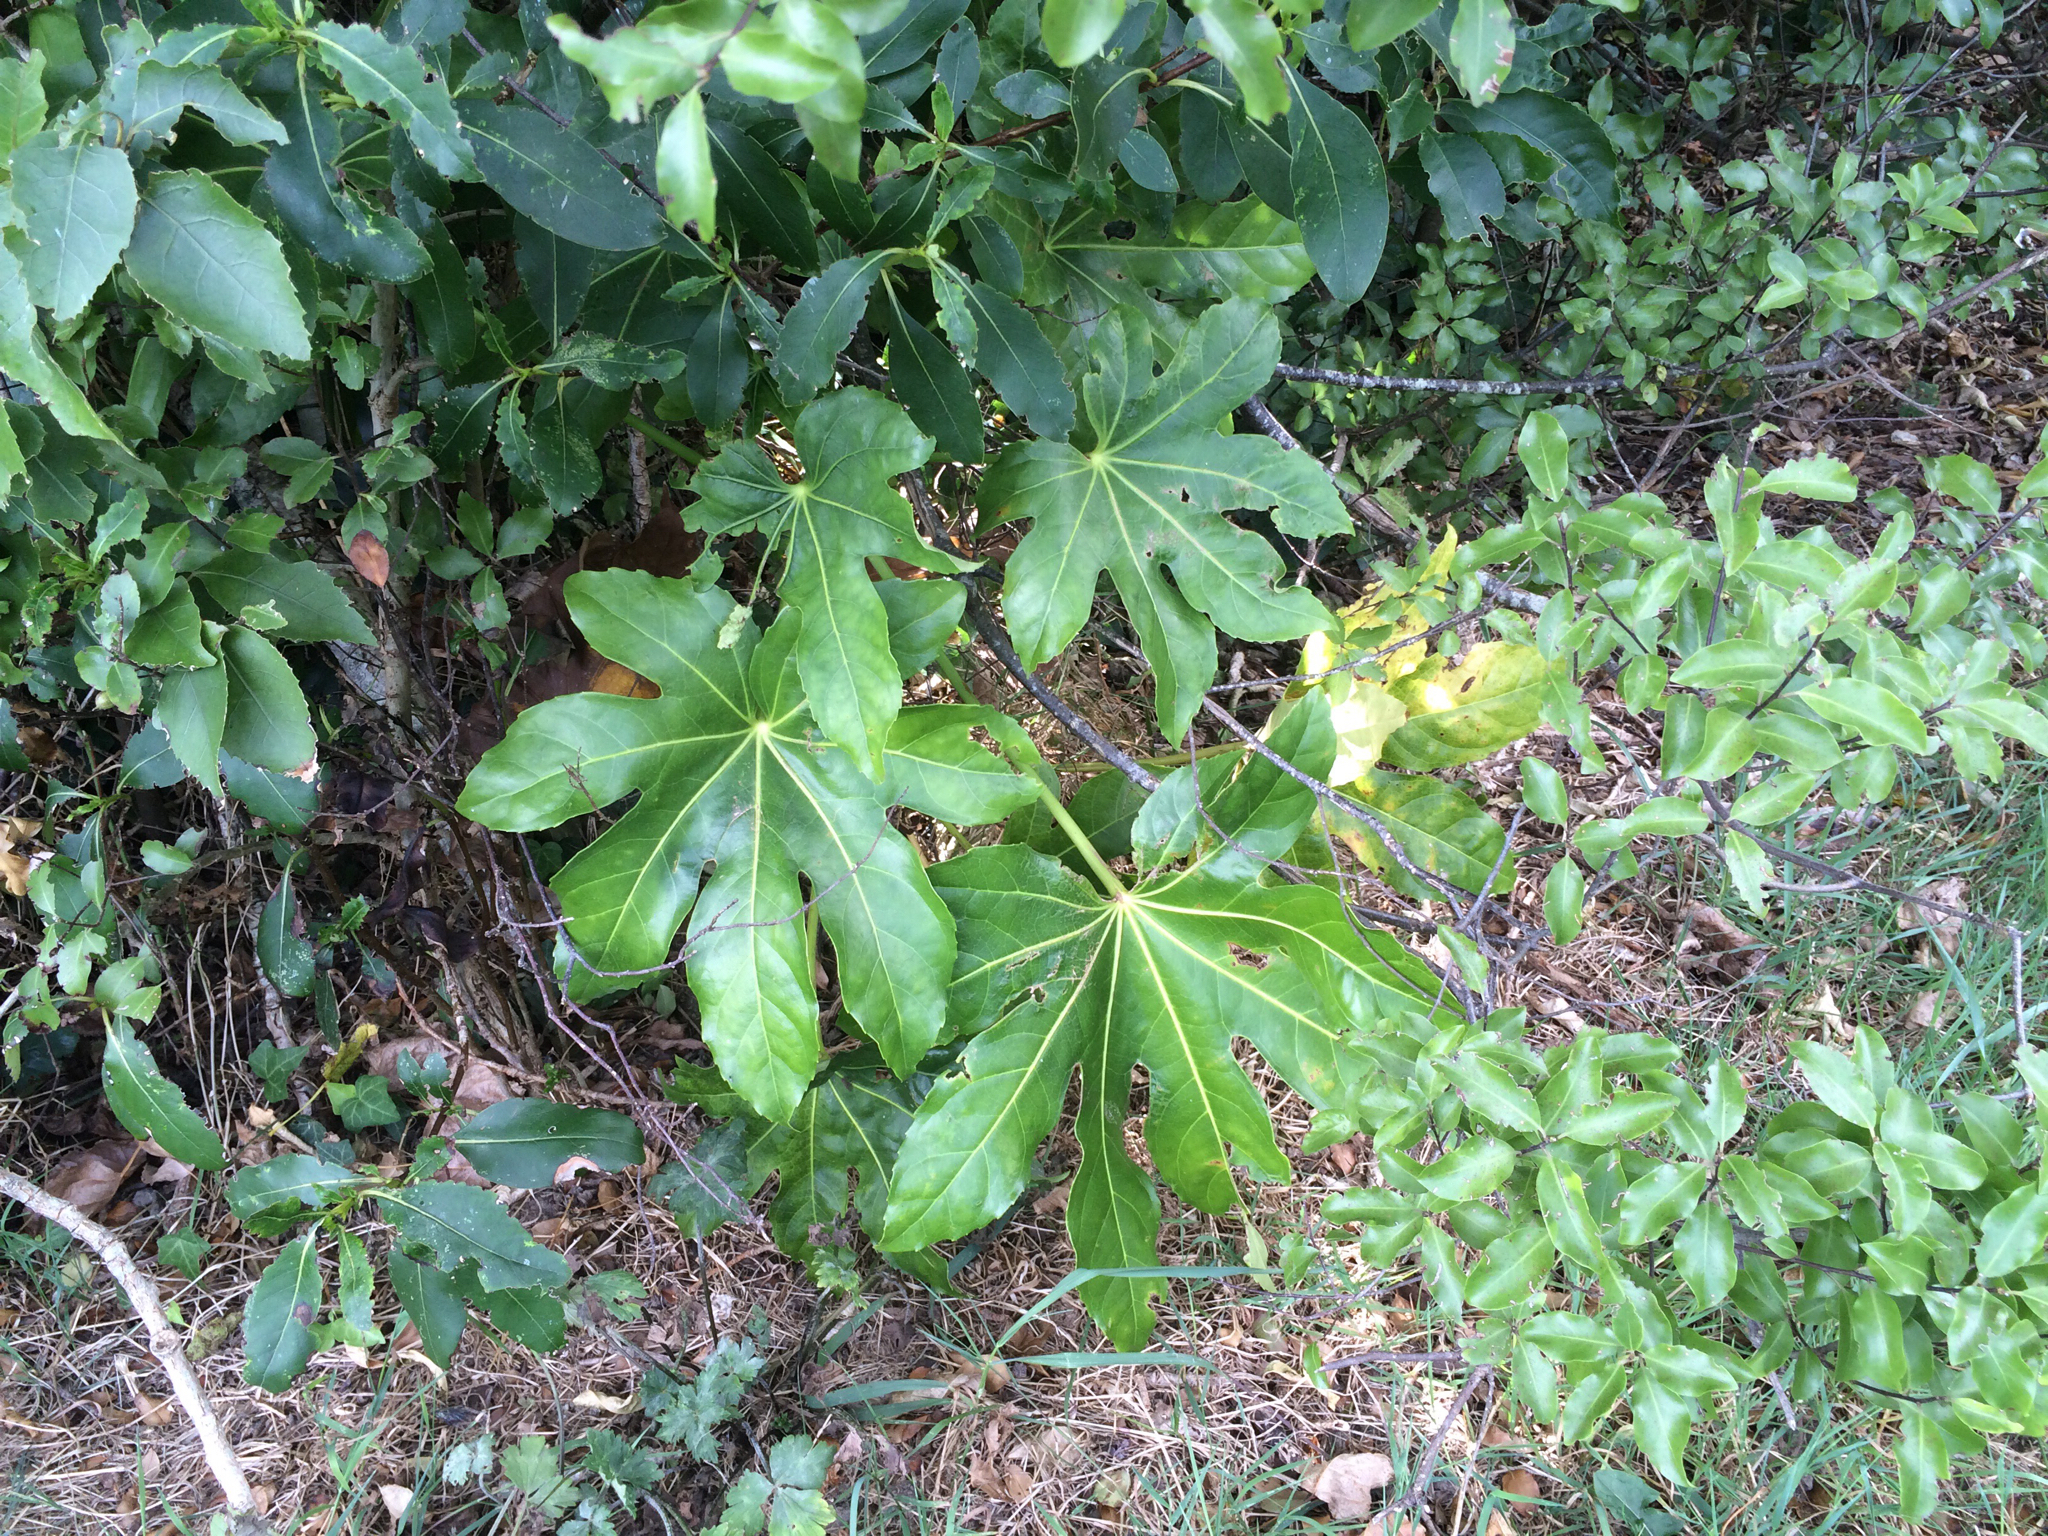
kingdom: Plantae
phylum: Tracheophyta
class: Magnoliopsida
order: Apiales
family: Araliaceae
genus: Fatsia
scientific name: Fatsia japonica
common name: Fatsia
